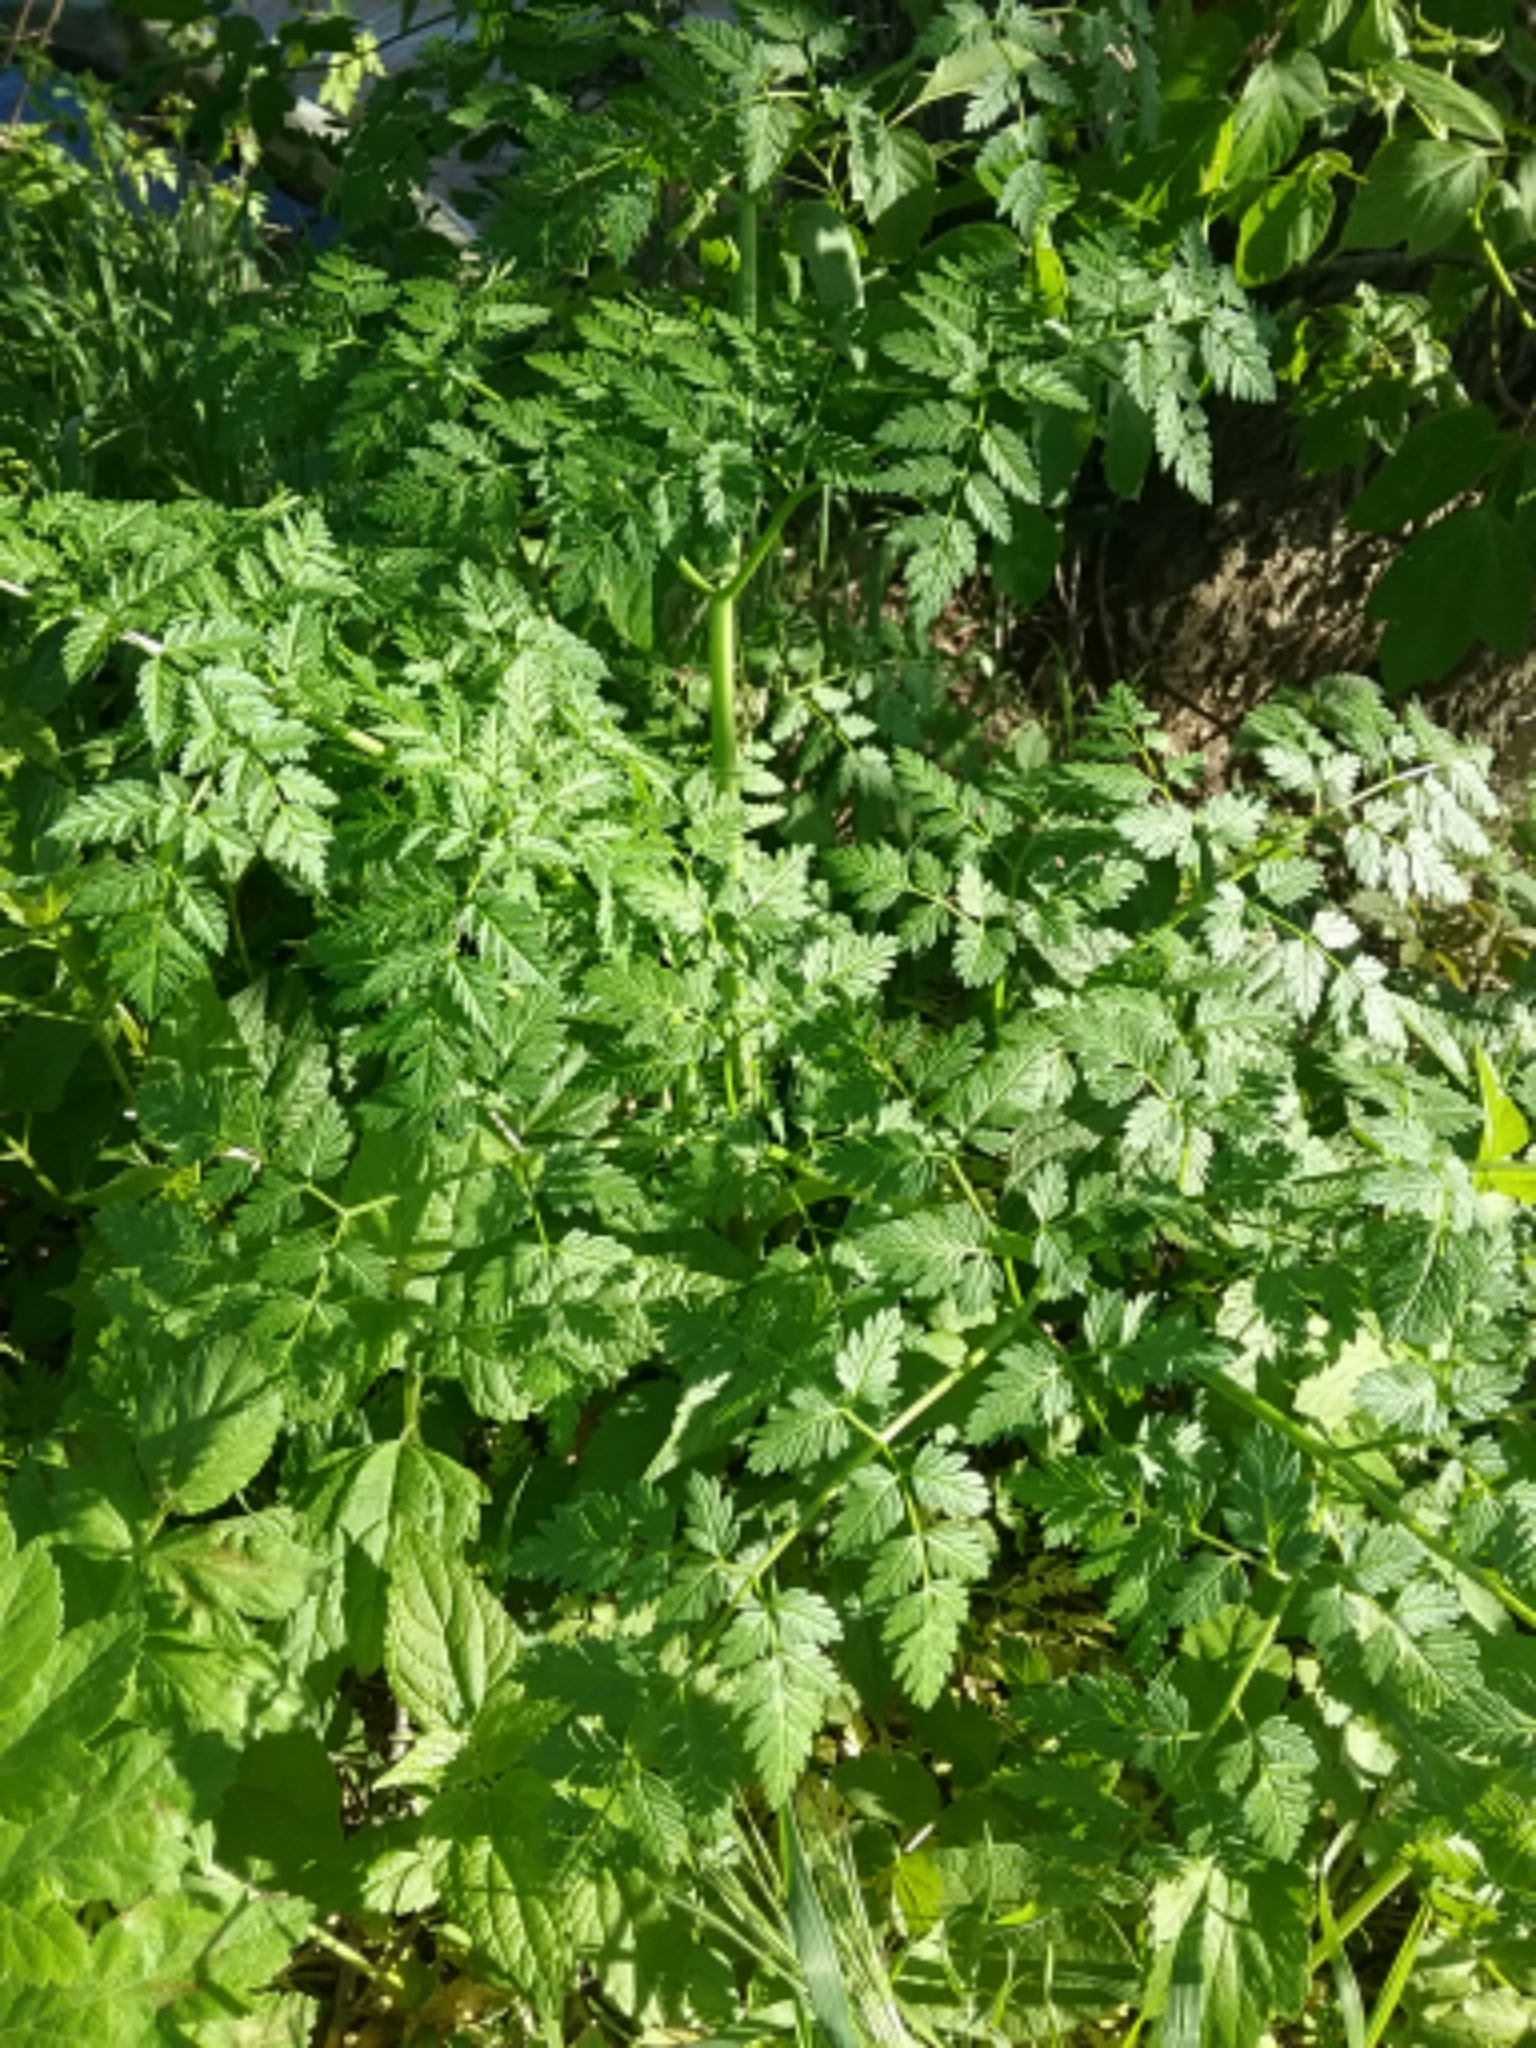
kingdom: Plantae
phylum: Tracheophyta
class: Magnoliopsida
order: Apiales
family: Apiaceae
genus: Conium
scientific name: Conium maculatum
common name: Hemlock
